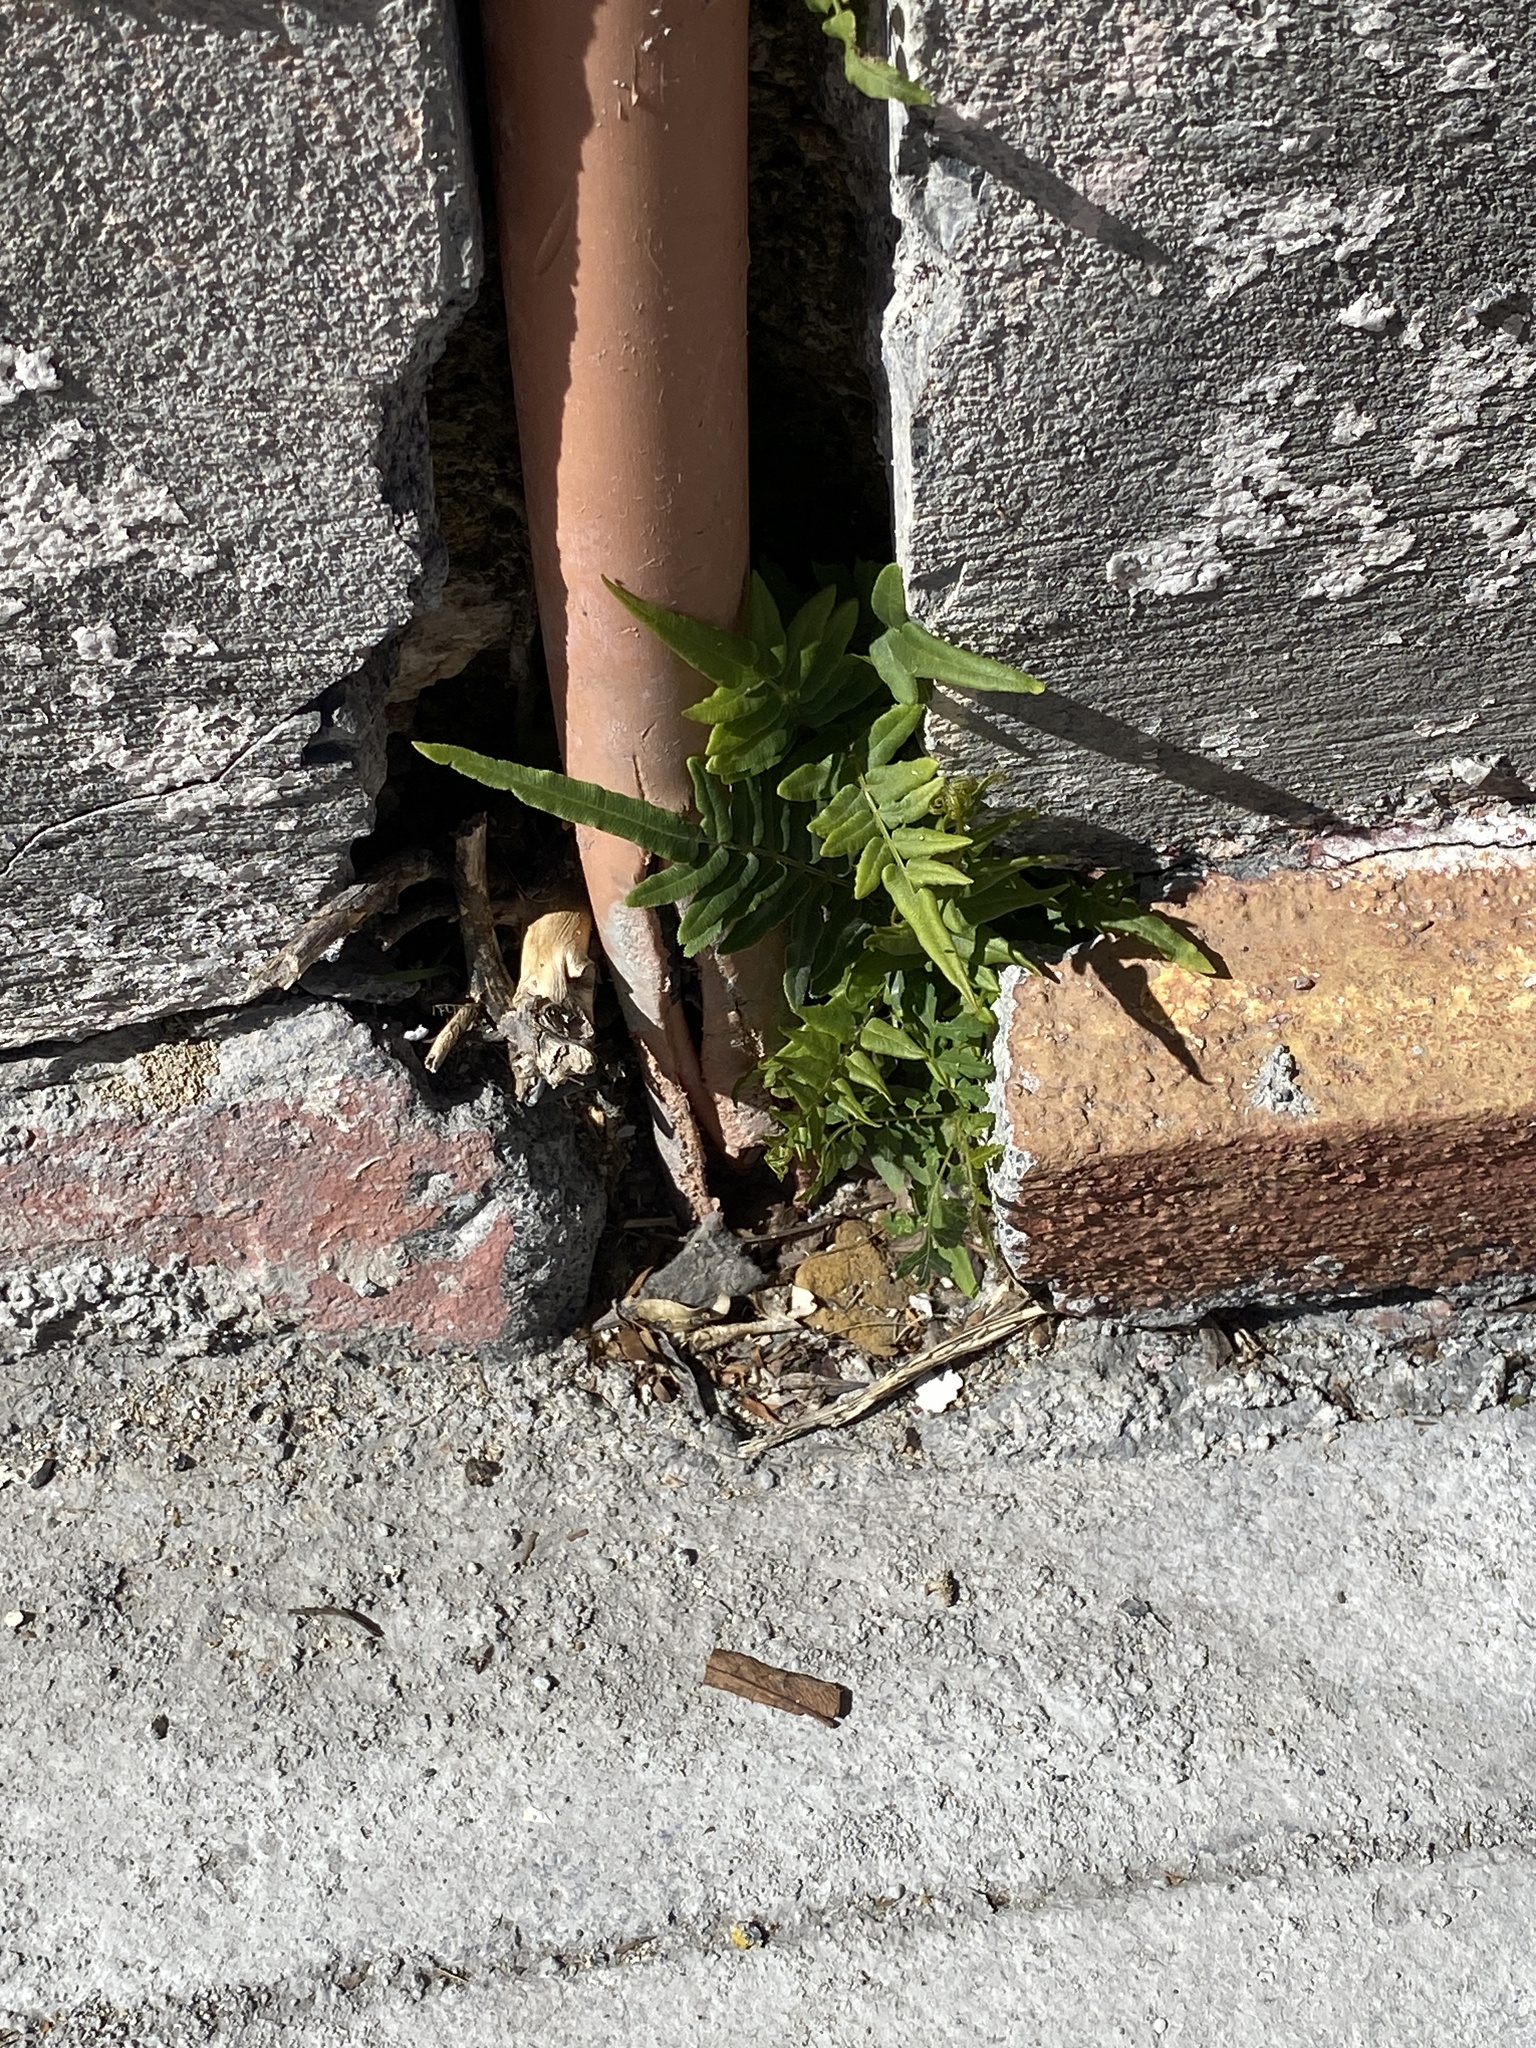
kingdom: Plantae
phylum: Tracheophyta
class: Polypodiopsida
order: Polypodiales
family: Pteridaceae
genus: Pteris
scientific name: Pteris vittata
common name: Ladder brake
